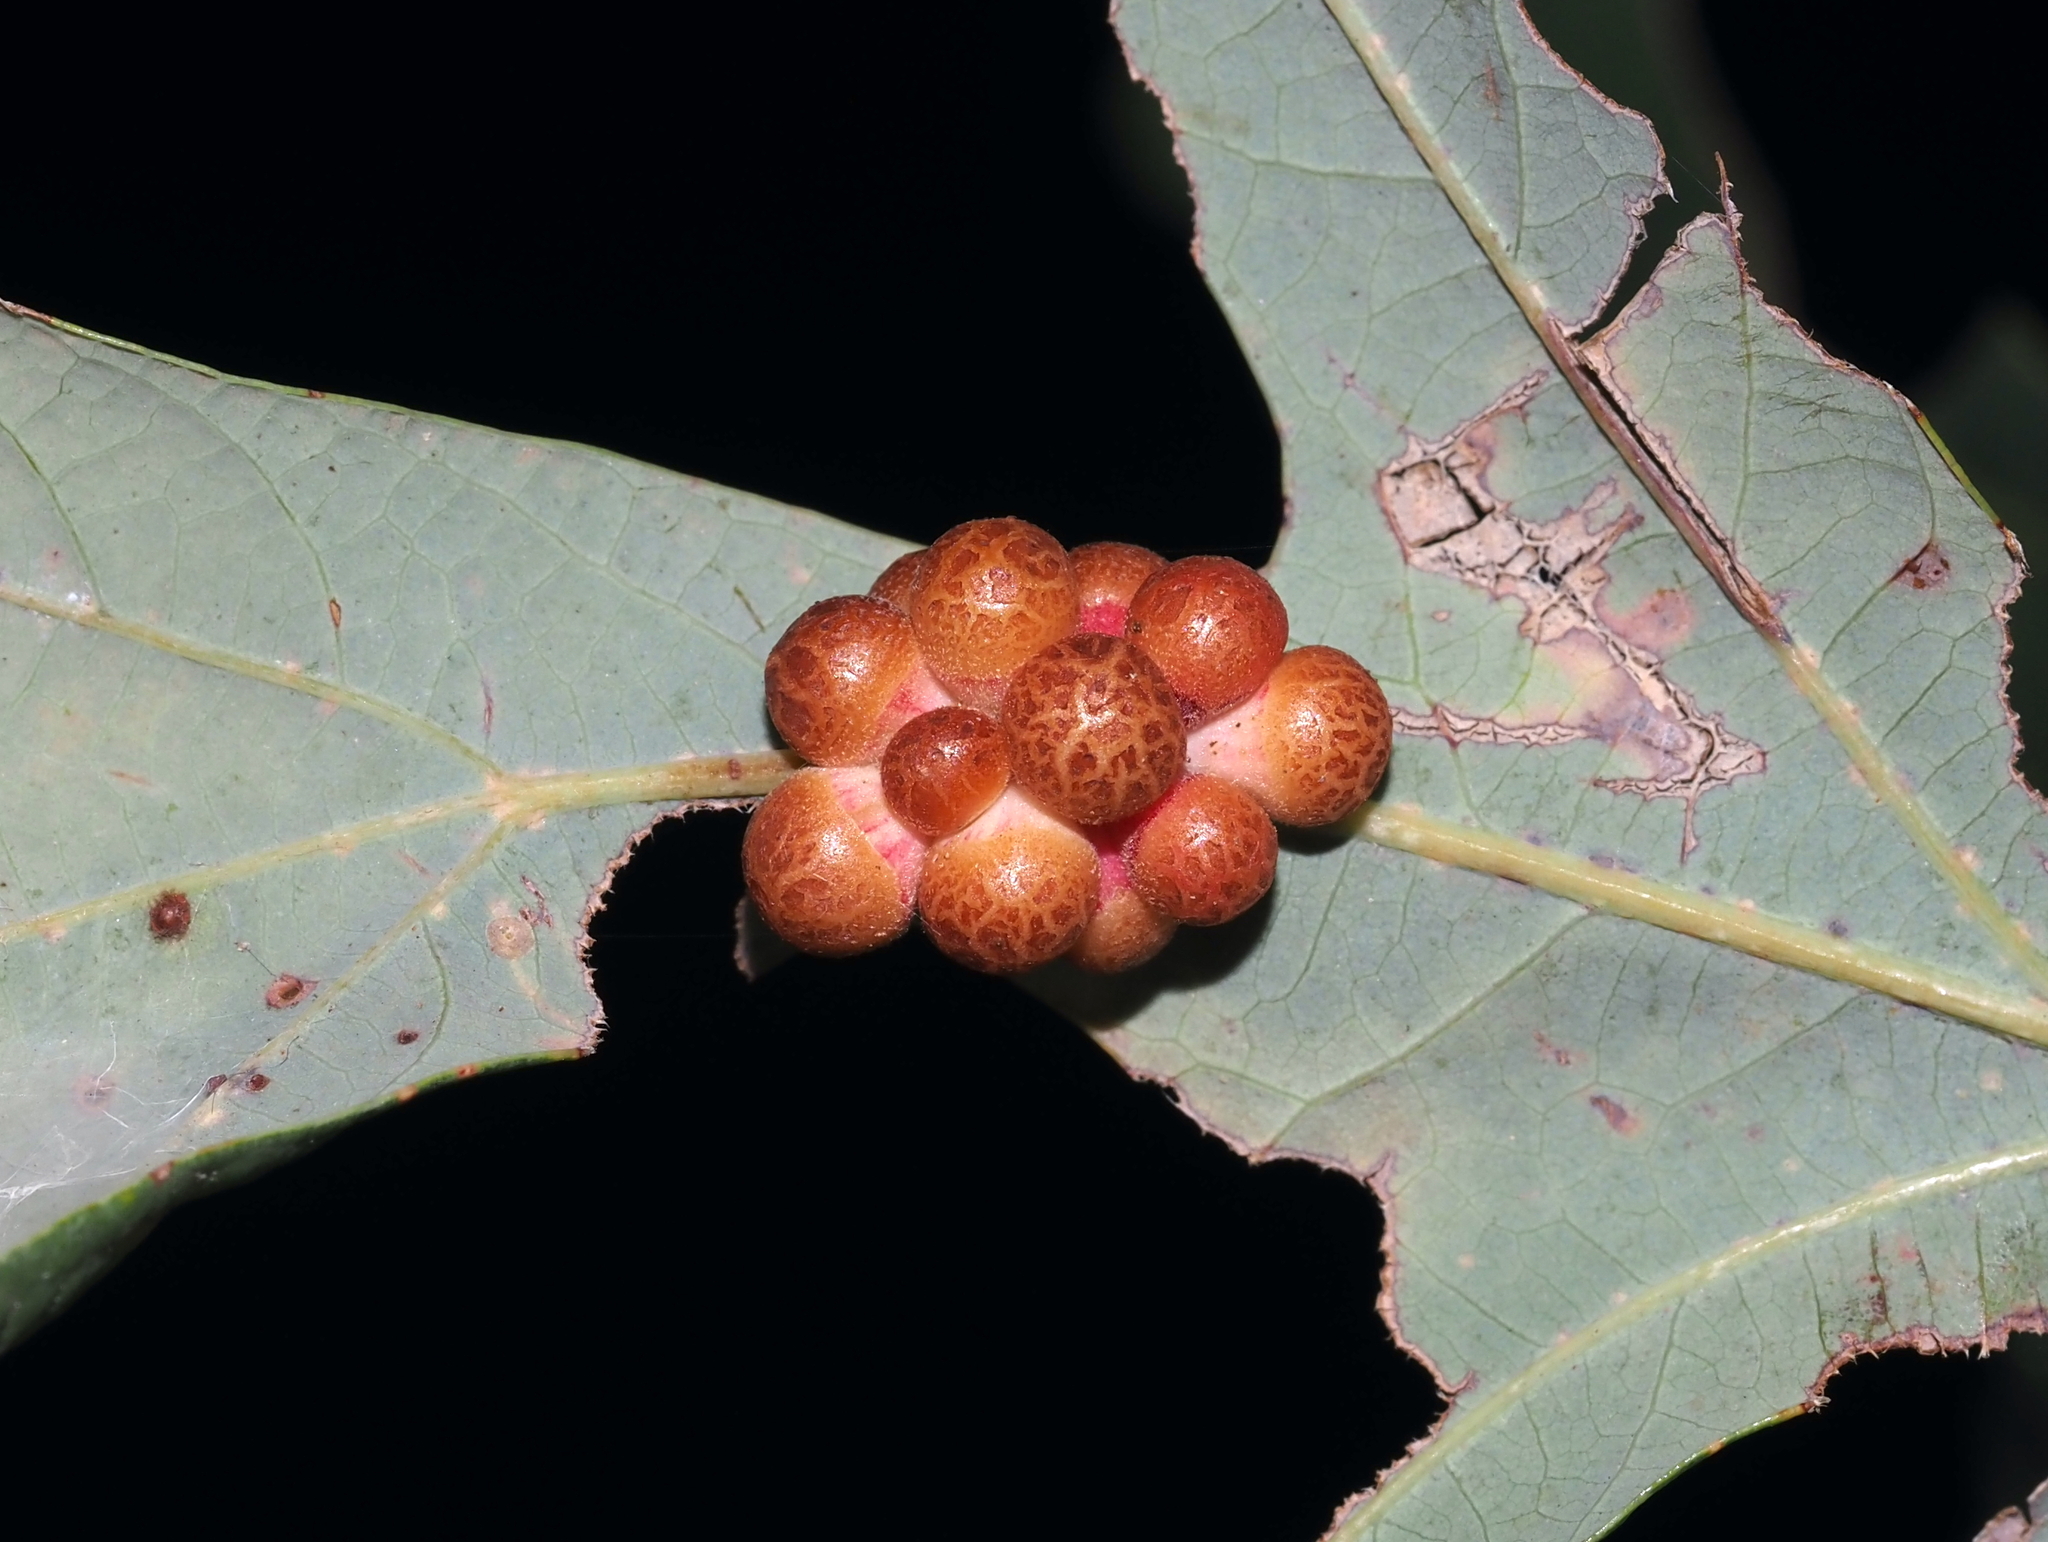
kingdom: Animalia
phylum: Arthropoda
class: Insecta
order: Hymenoptera
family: Cynipidae
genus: Andricus
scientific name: Andricus
